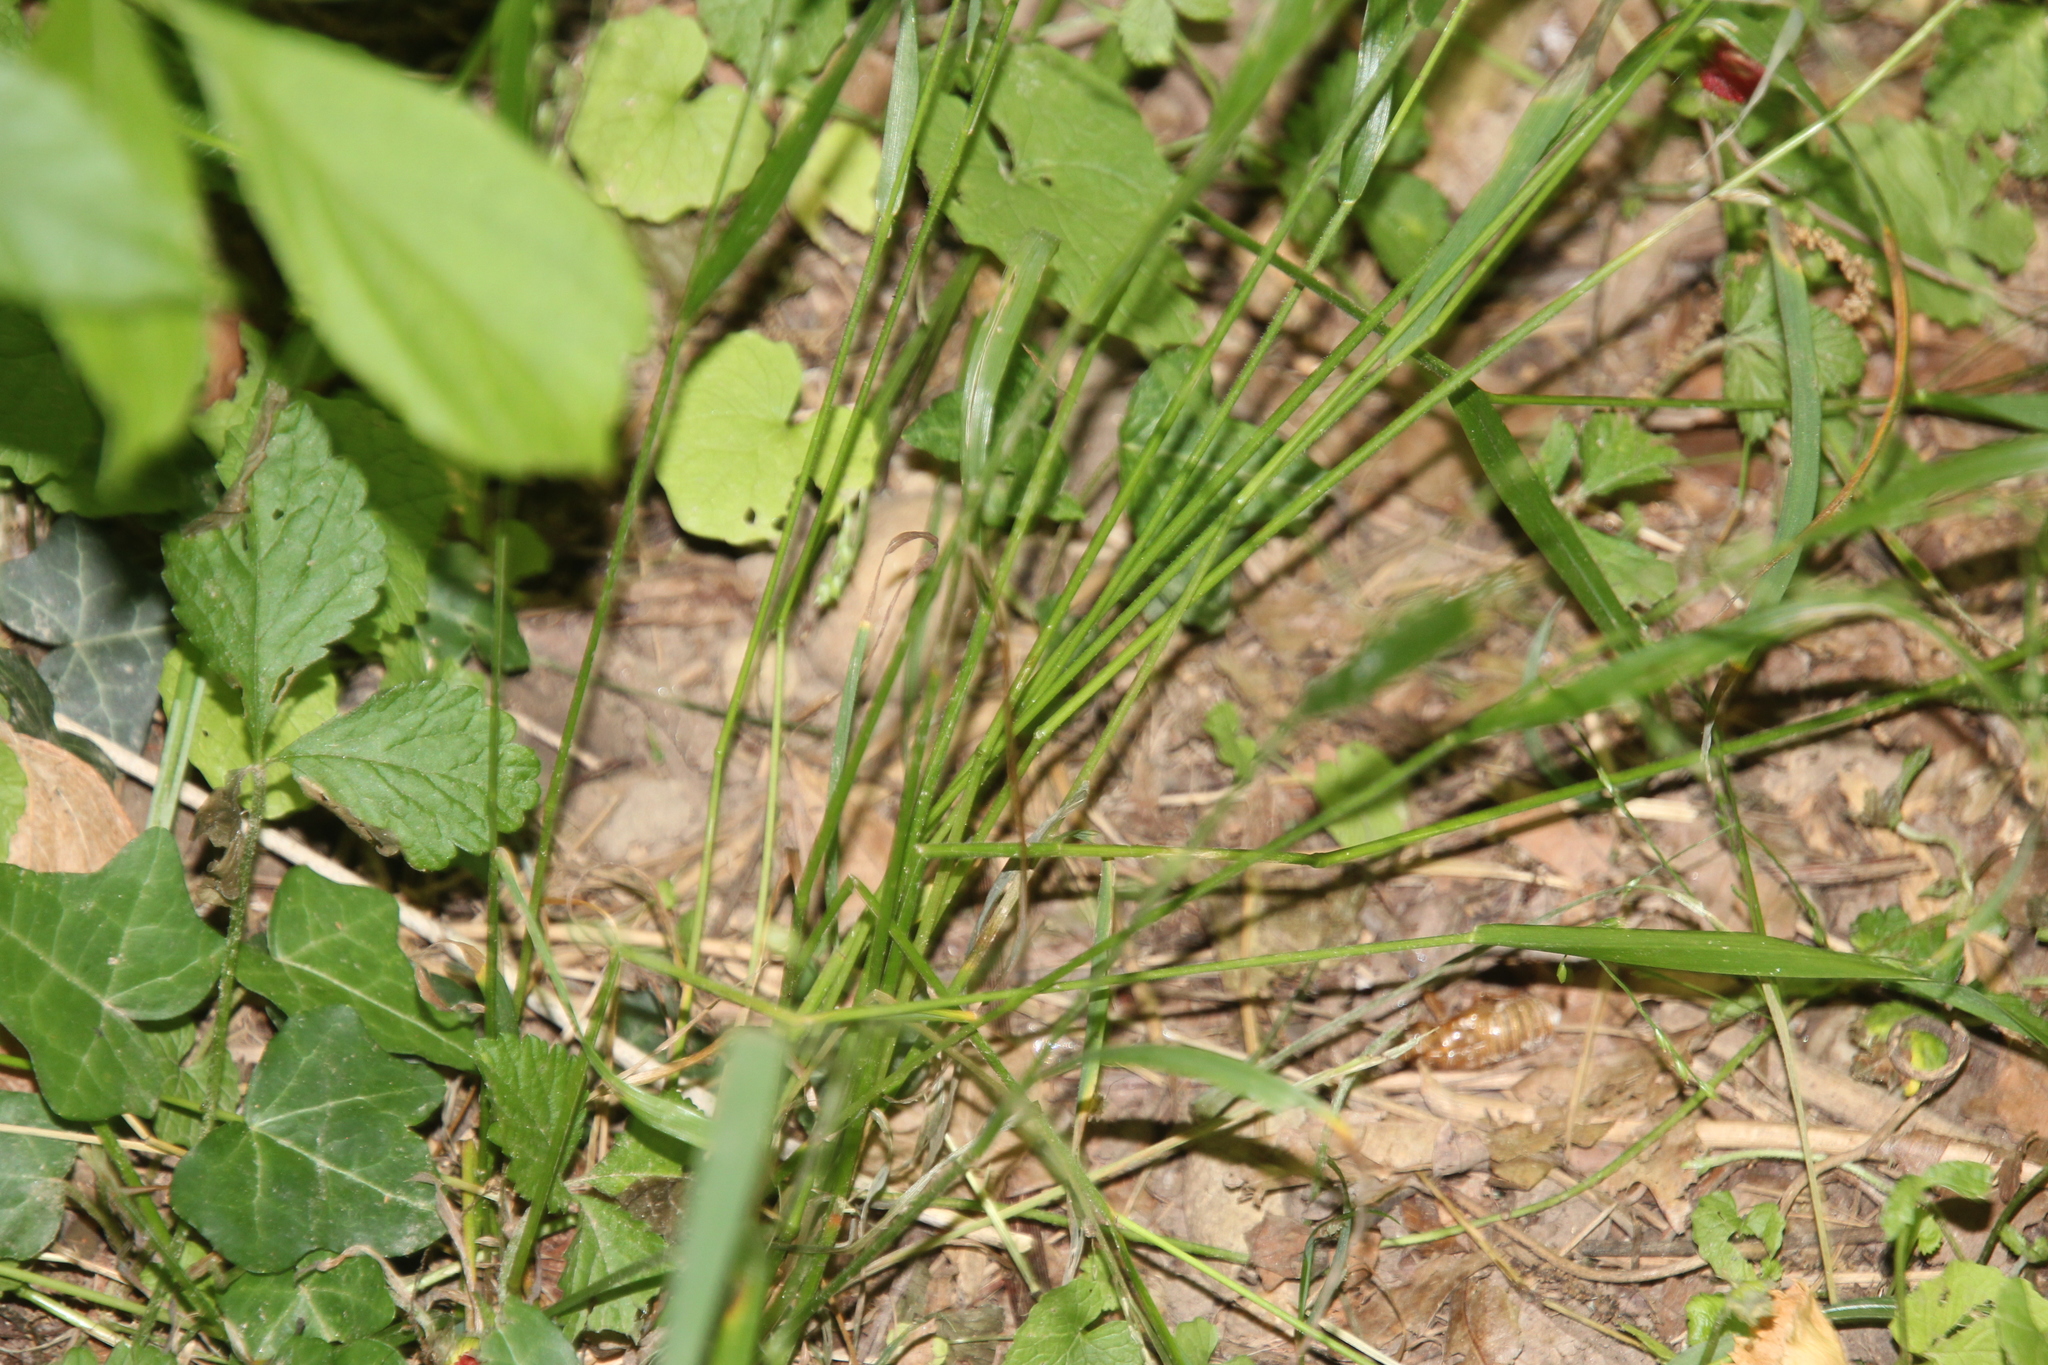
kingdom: Plantae
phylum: Tracheophyta
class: Liliopsida
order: Poales
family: Poaceae
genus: Festuca
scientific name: Festuca subverticillata
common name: Nodding fescue
